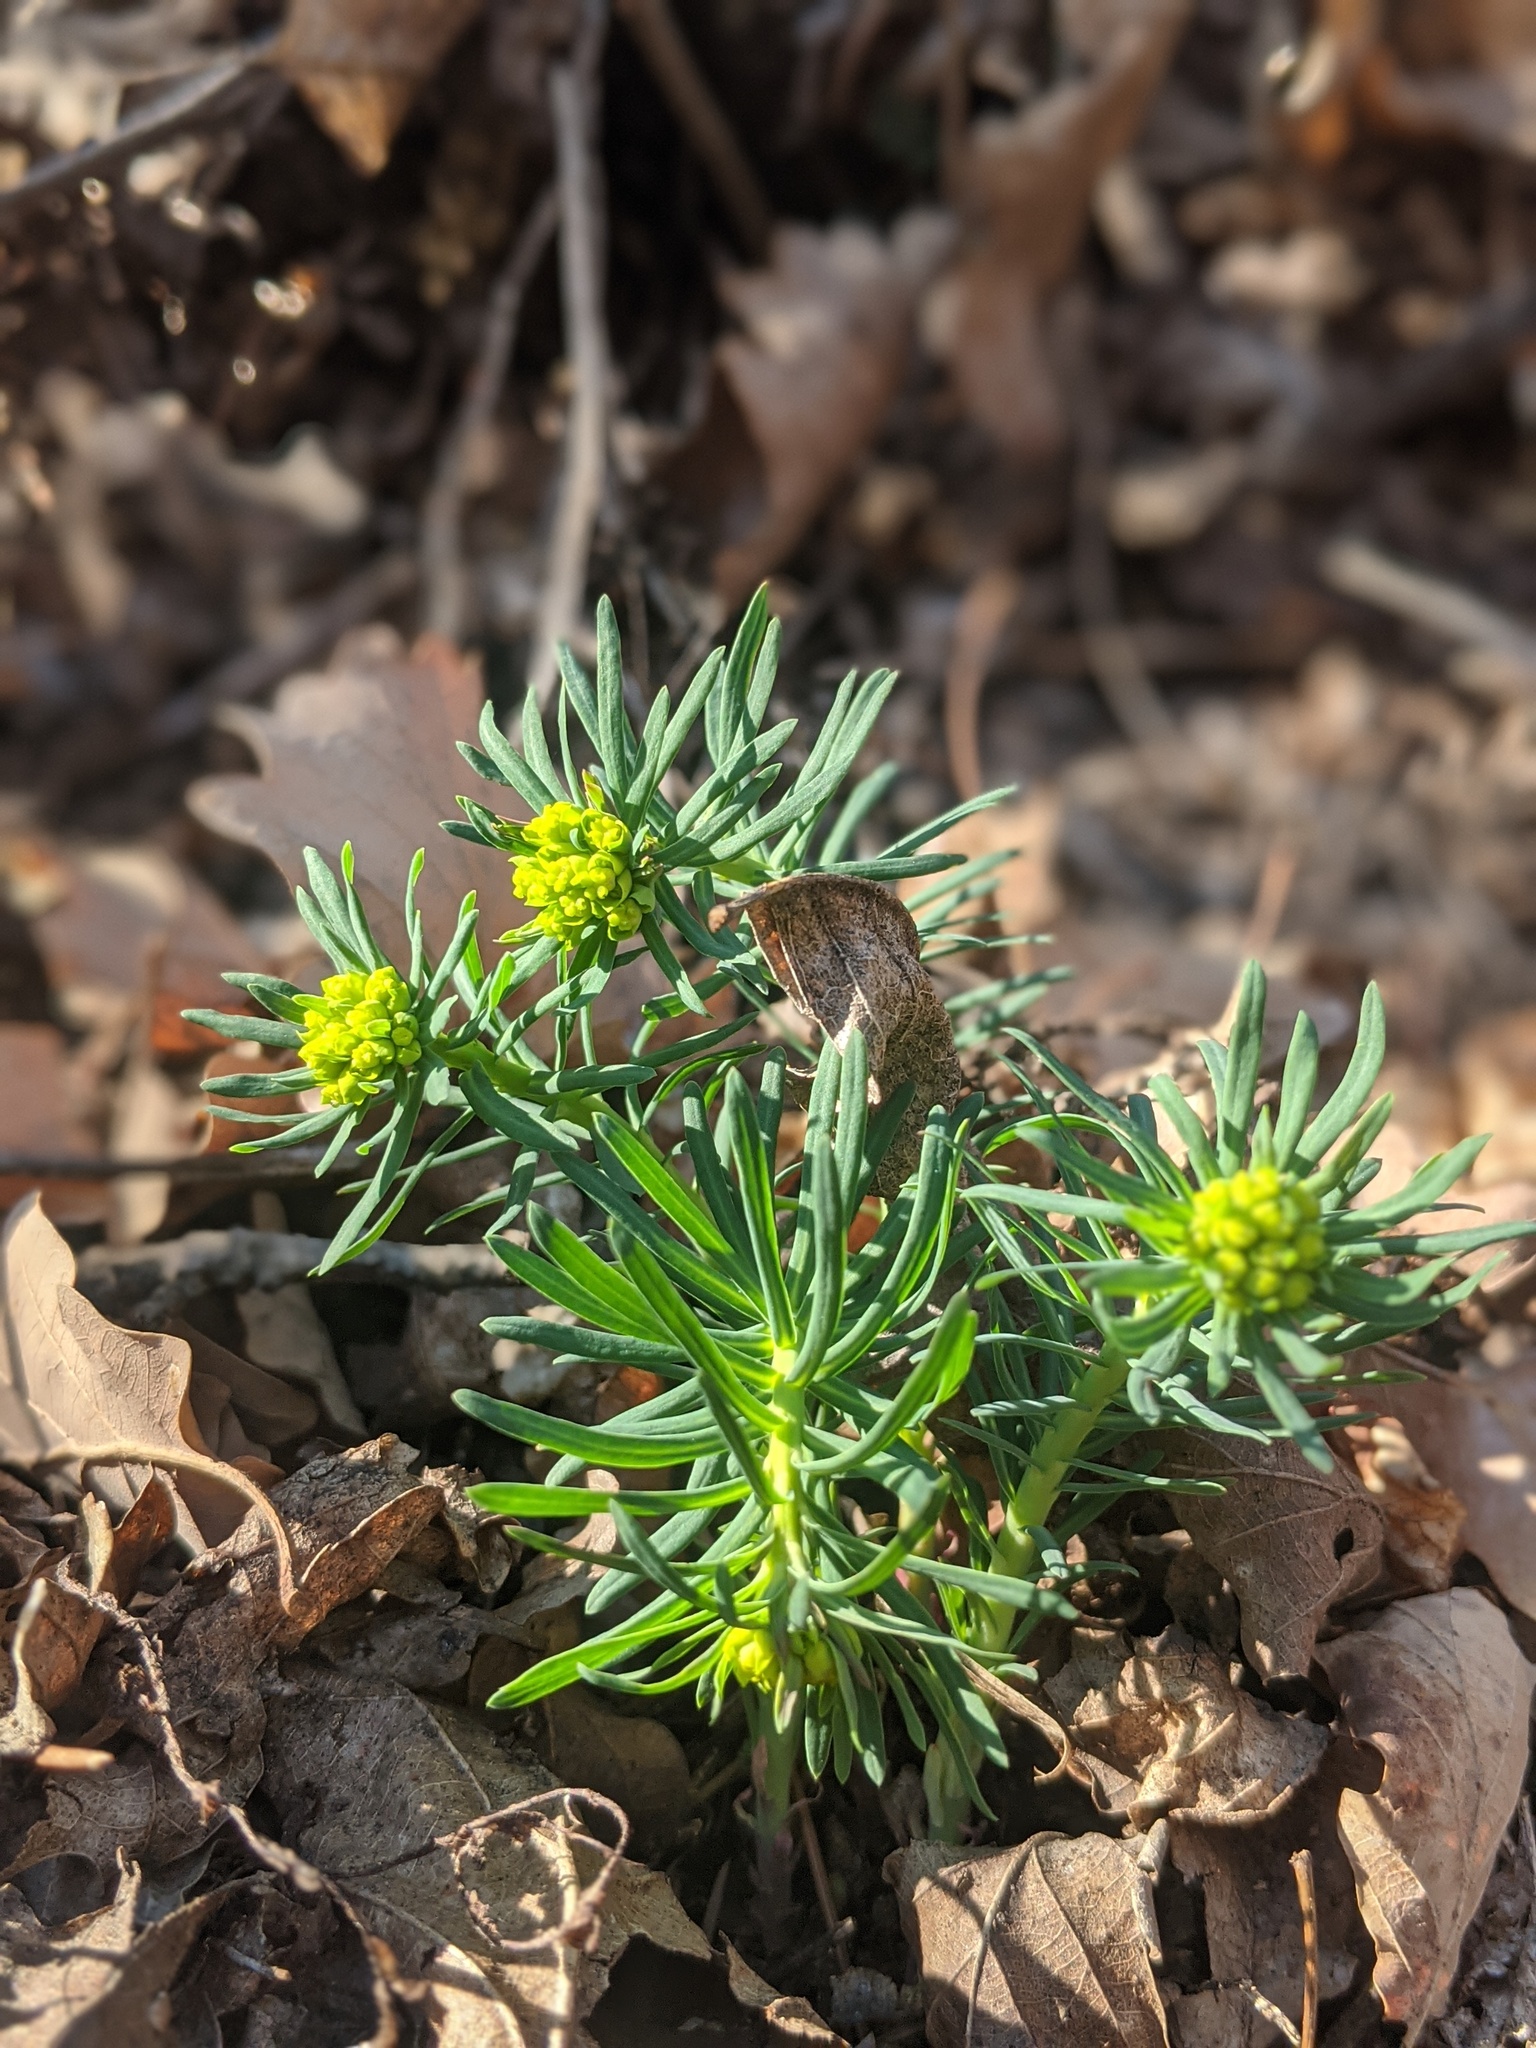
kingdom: Plantae
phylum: Tracheophyta
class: Magnoliopsida
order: Malpighiales
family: Euphorbiaceae
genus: Euphorbia
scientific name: Euphorbia cyparissias
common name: Cypress spurge
